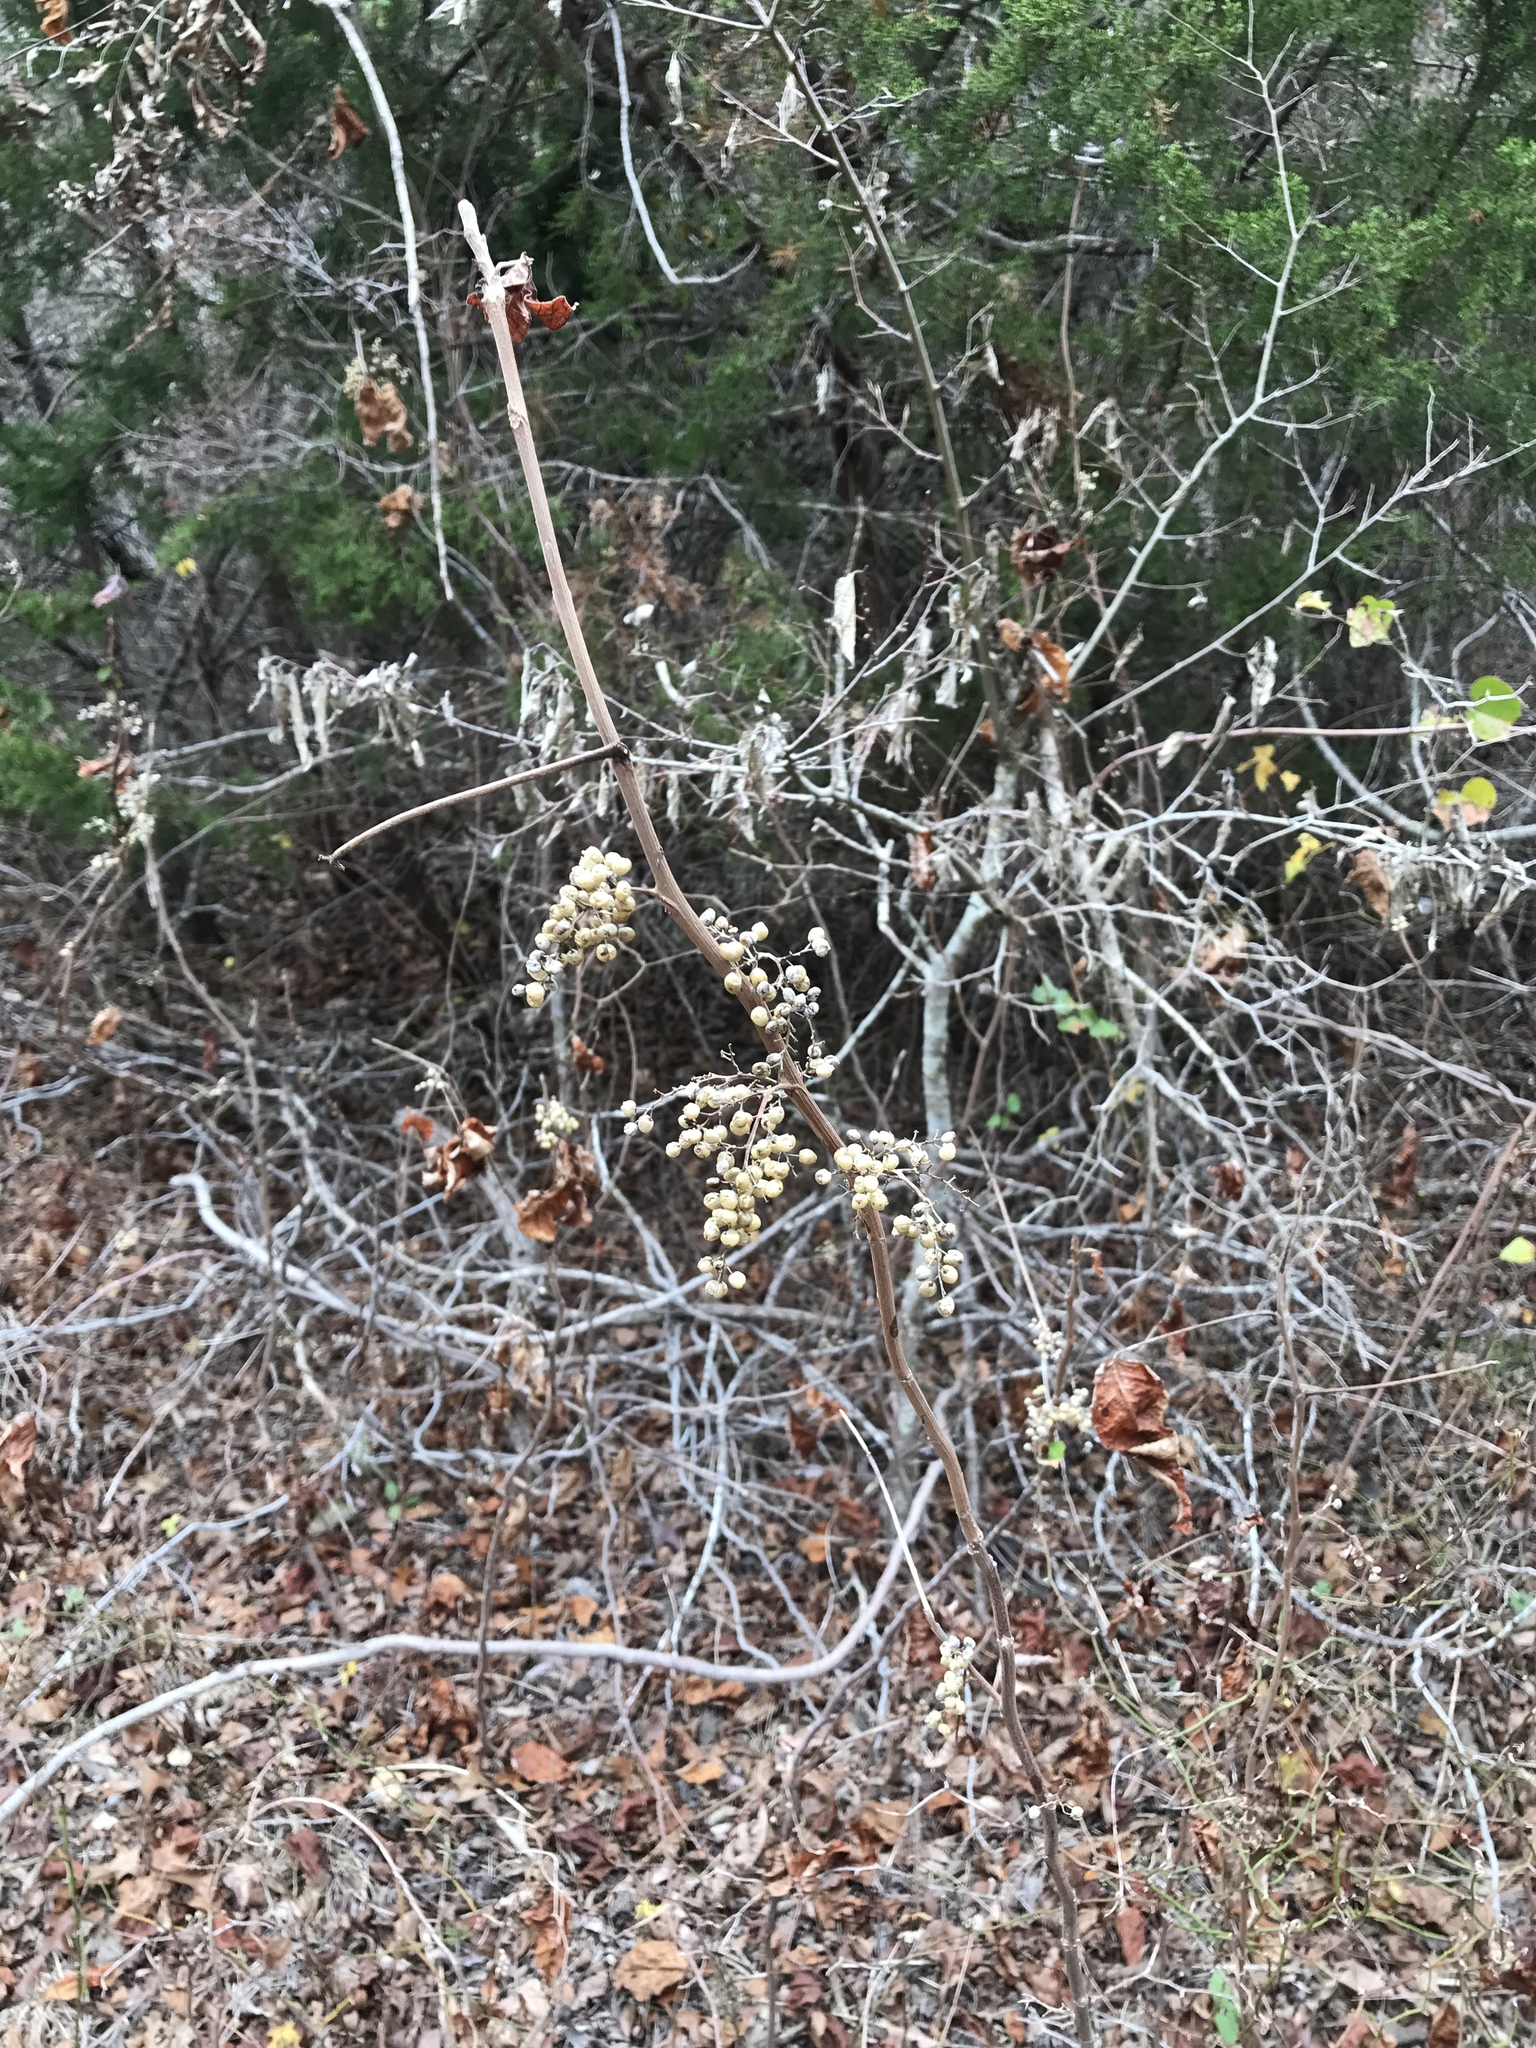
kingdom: Plantae
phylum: Tracheophyta
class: Magnoliopsida
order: Sapindales
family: Anacardiaceae
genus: Toxicodendron
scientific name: Toxicodendron radicans
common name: Poison ivy
